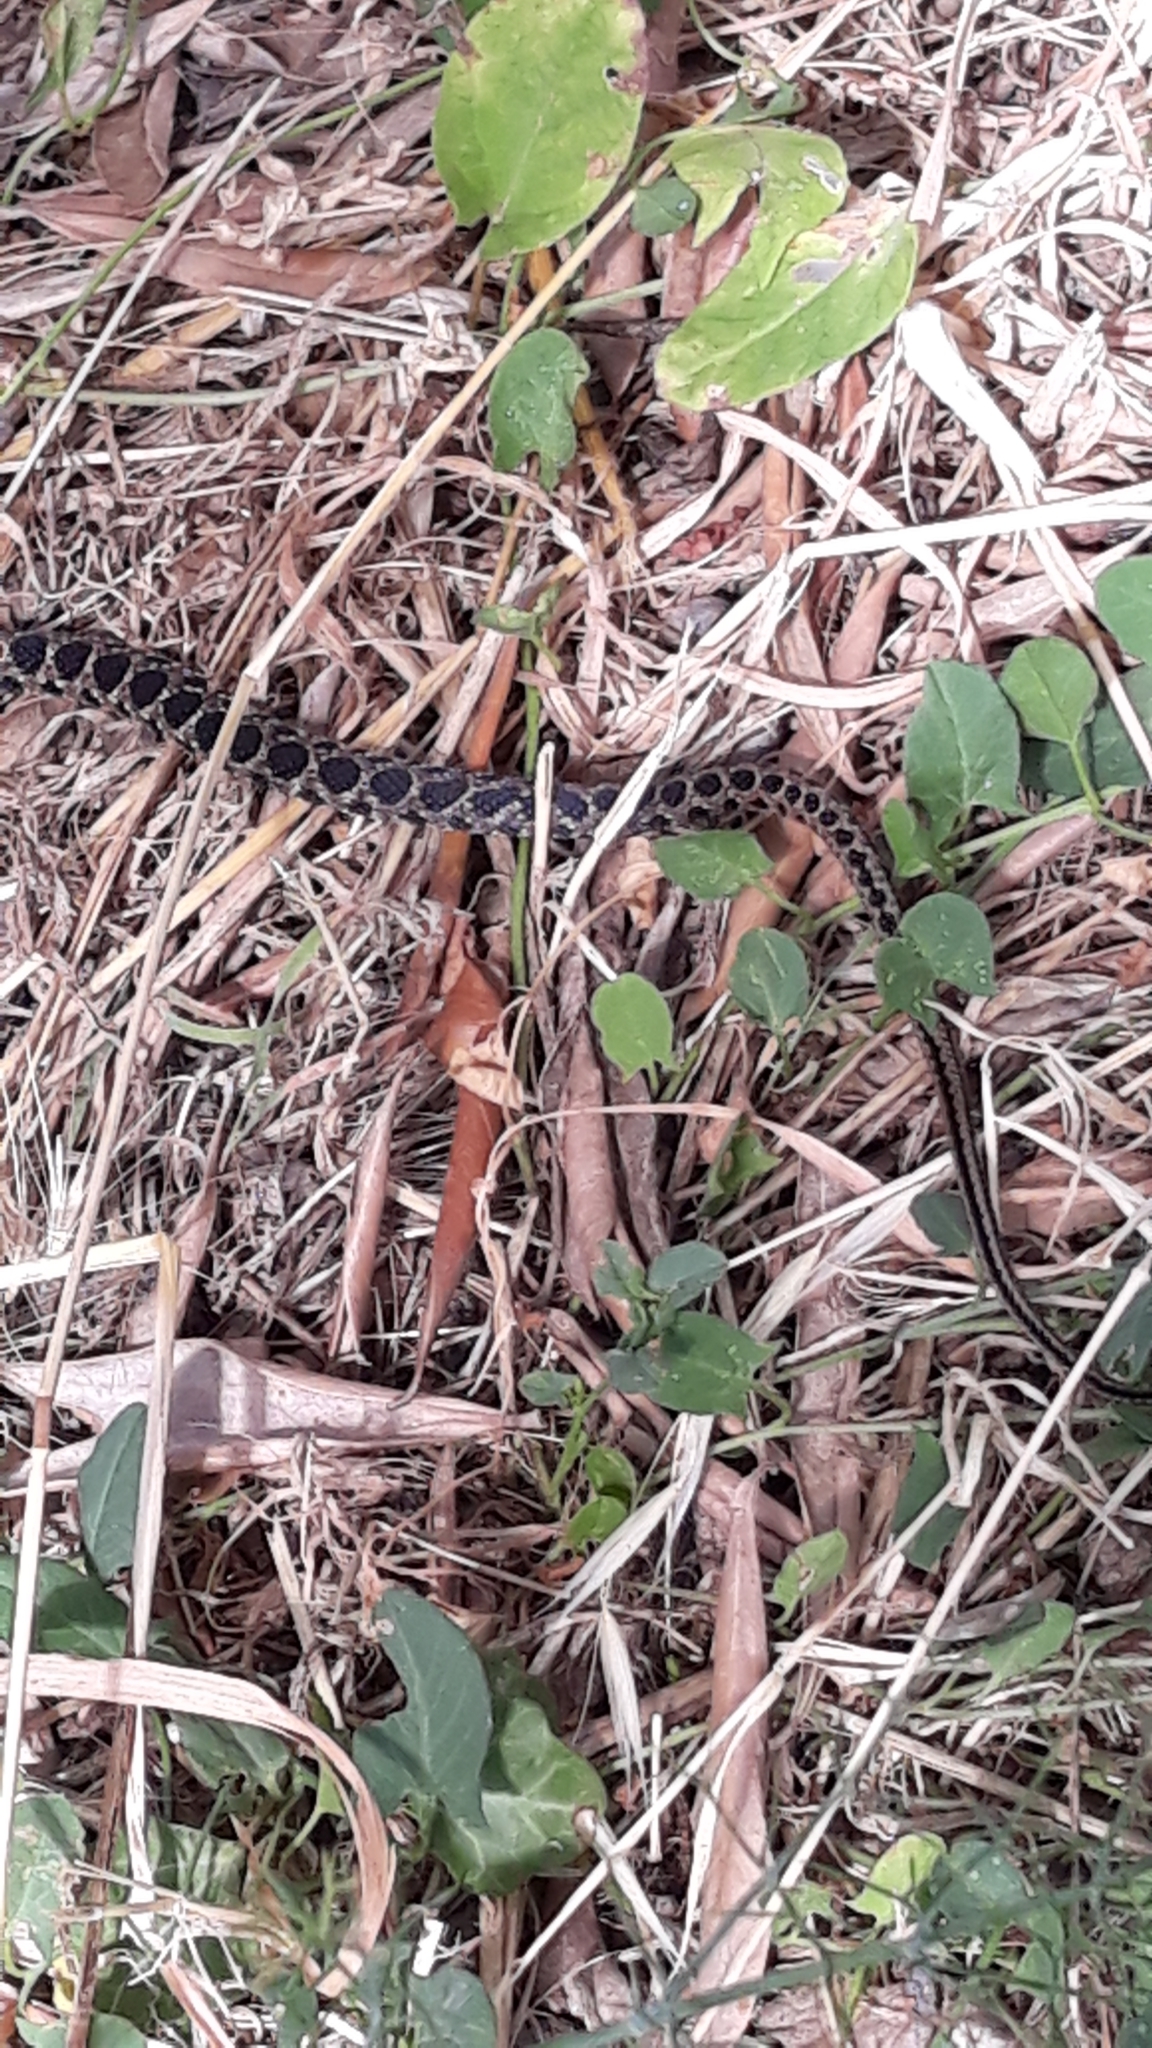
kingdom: Animalia
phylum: Chordata
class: Squamata
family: Colubridae
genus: Hemorrhois
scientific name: Hemorrhois hippocrepis
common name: Horseshoe whip snake
